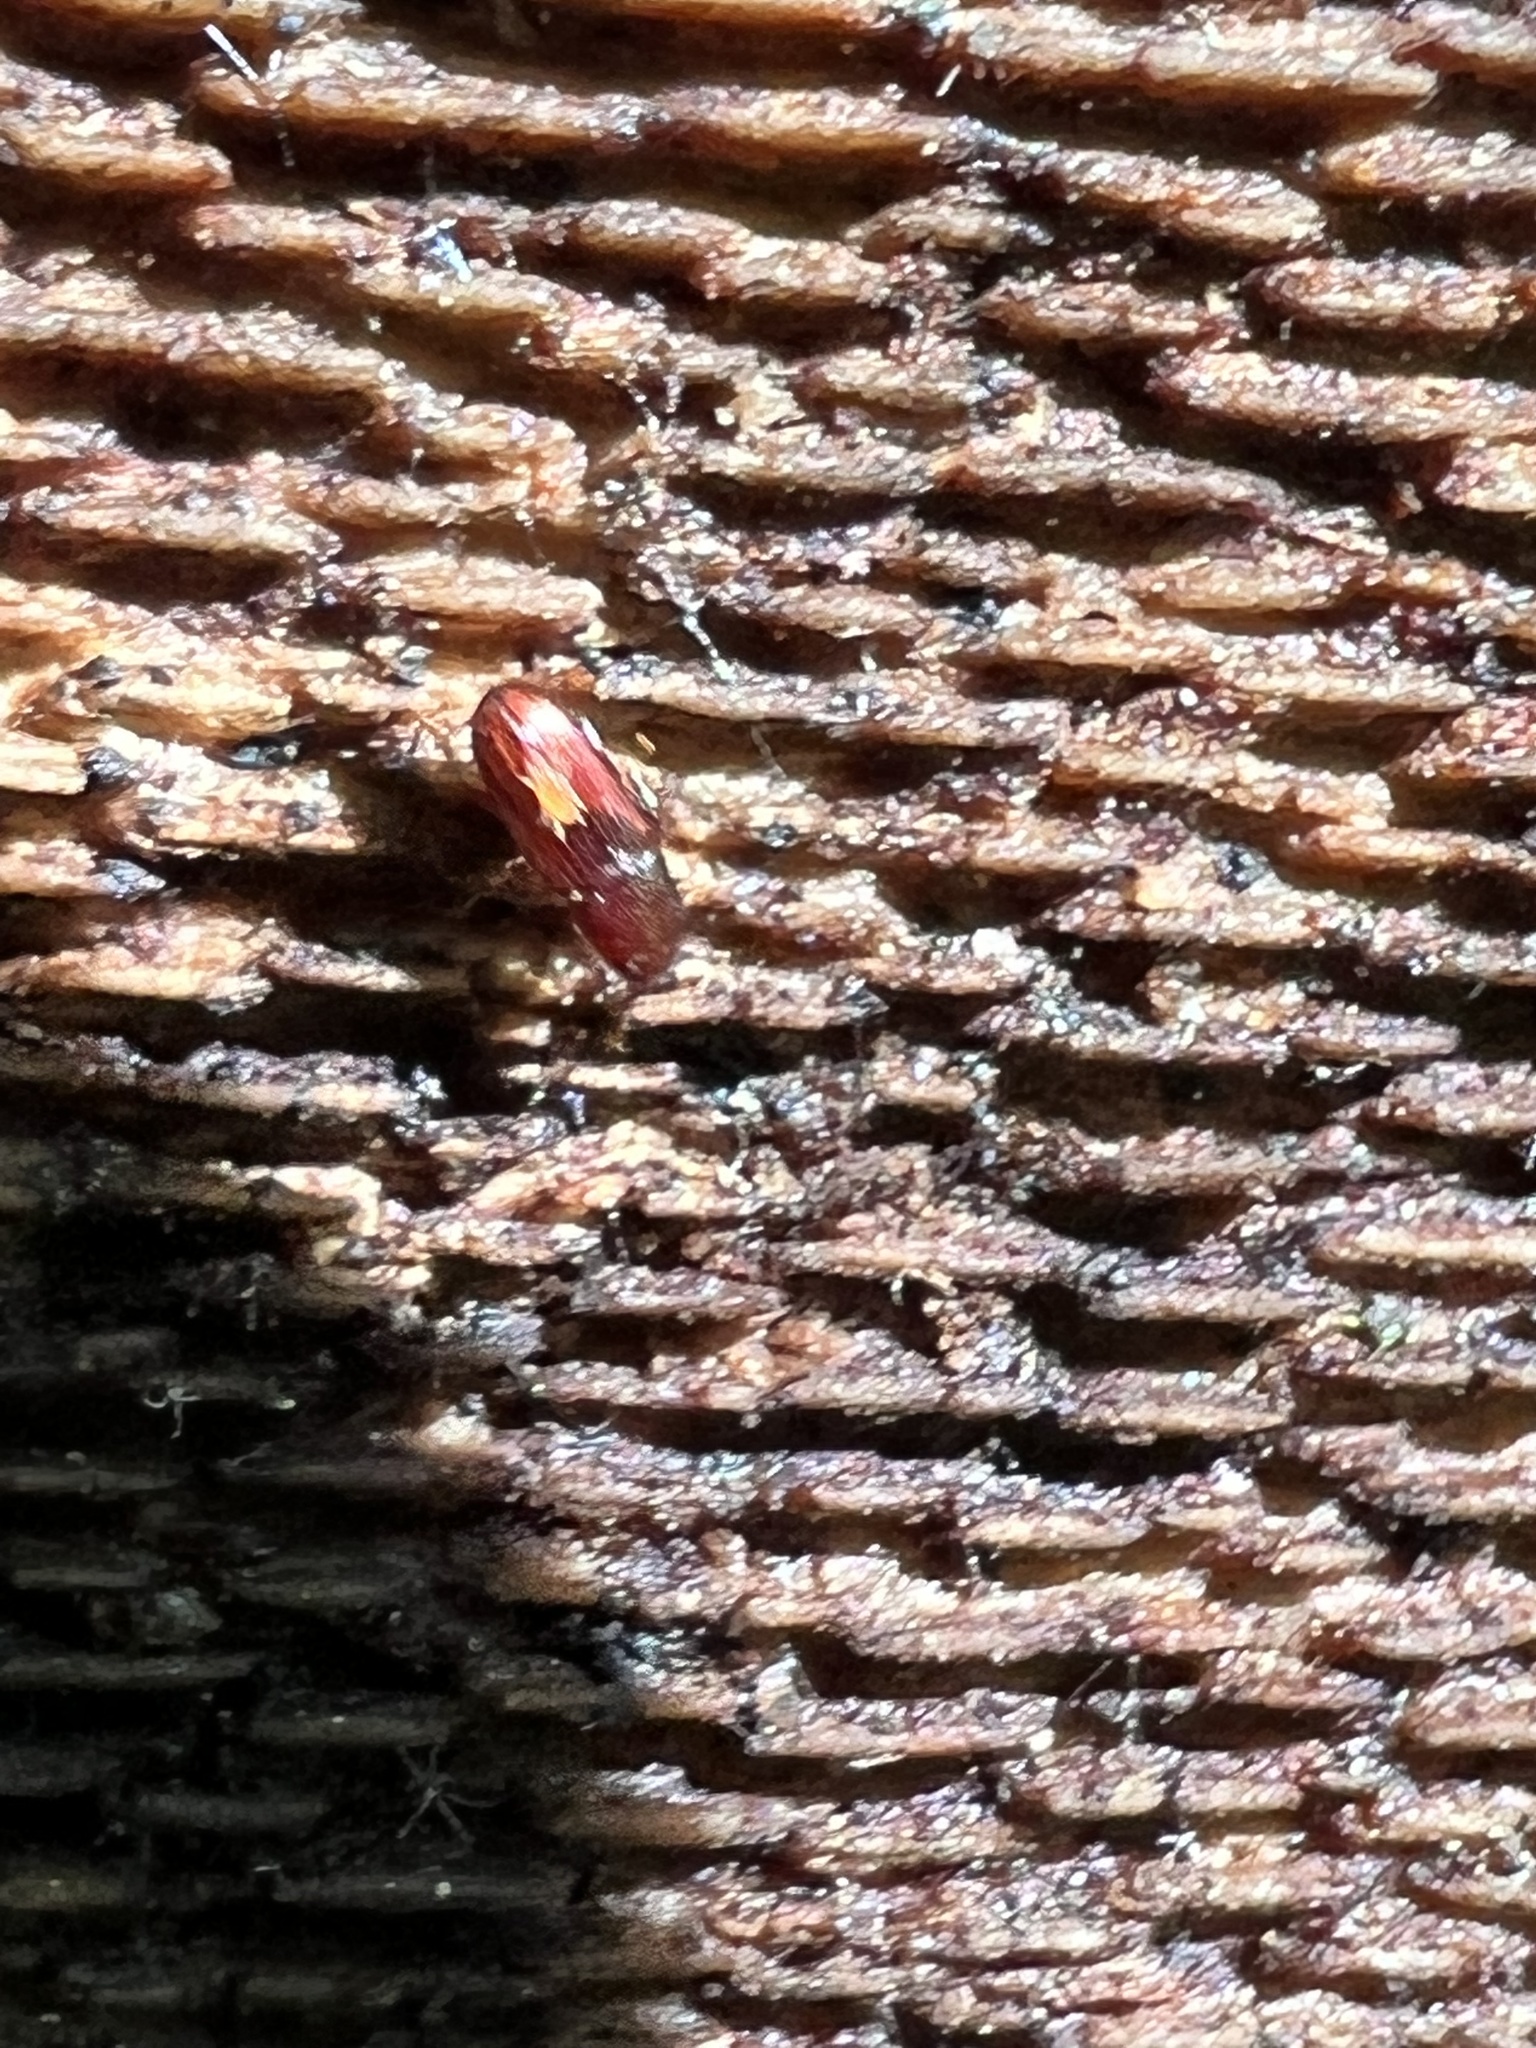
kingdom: Animalia
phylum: Arthropoda
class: Insecta
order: Coleoptera
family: Cerylonidae
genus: Cerylon
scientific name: Cerylon unicolor
